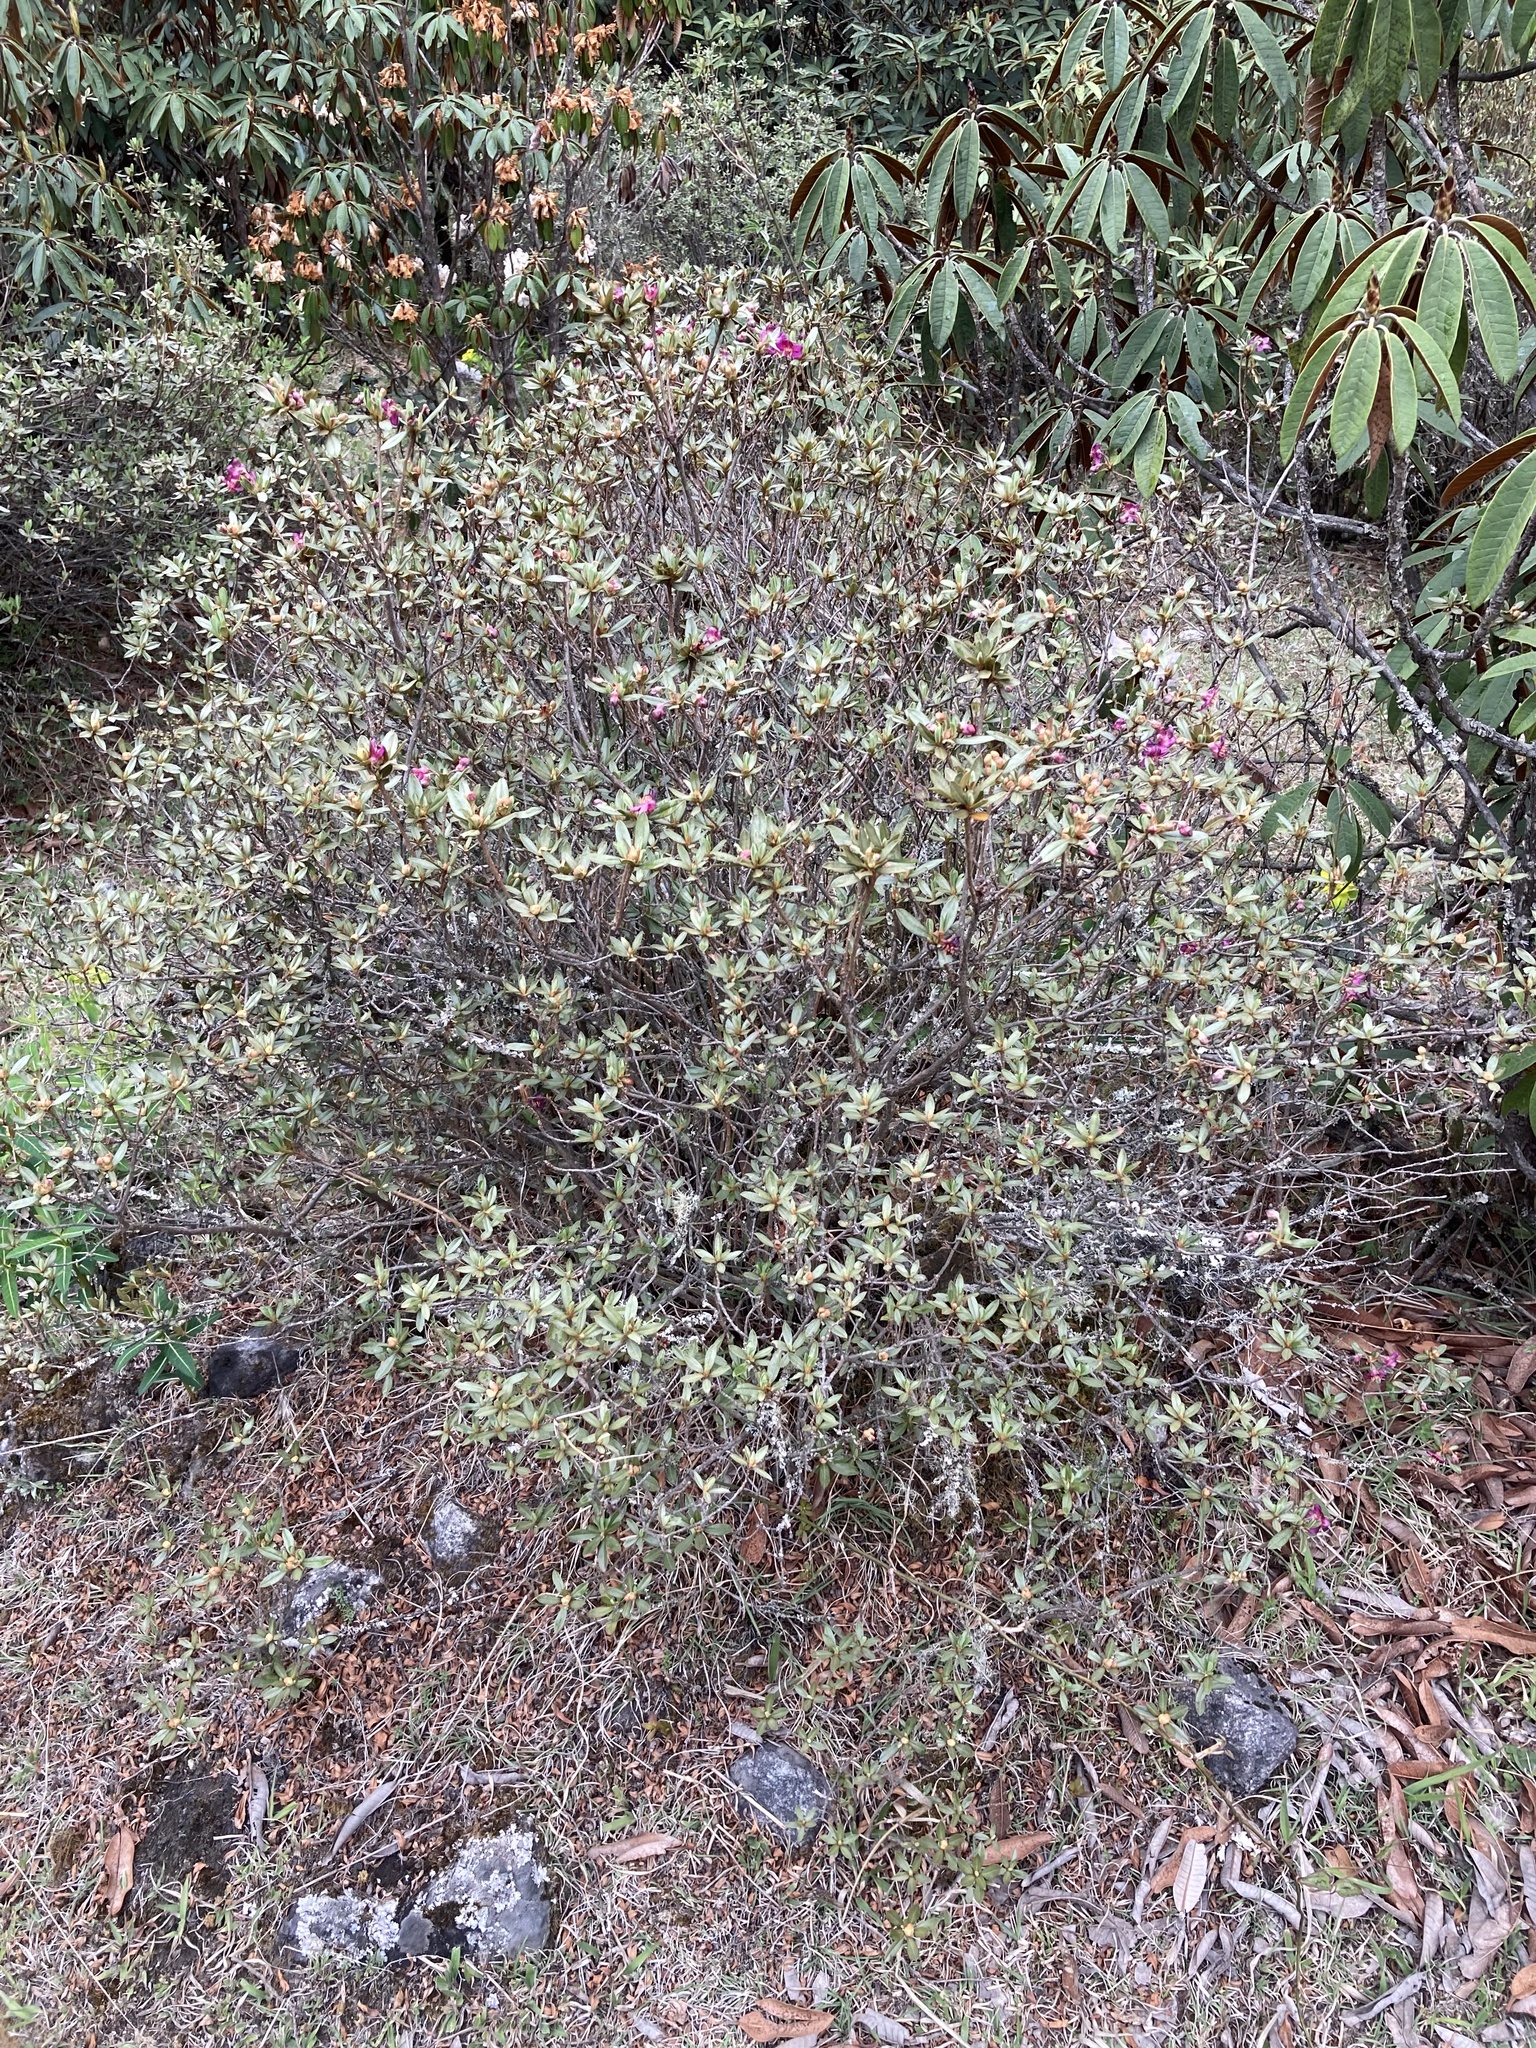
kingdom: Plantae
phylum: Tracheophyta
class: Magnoliopsida
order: Ericales
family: Ericaceae
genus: Rhododendron
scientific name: Rhododendron lepidotum
